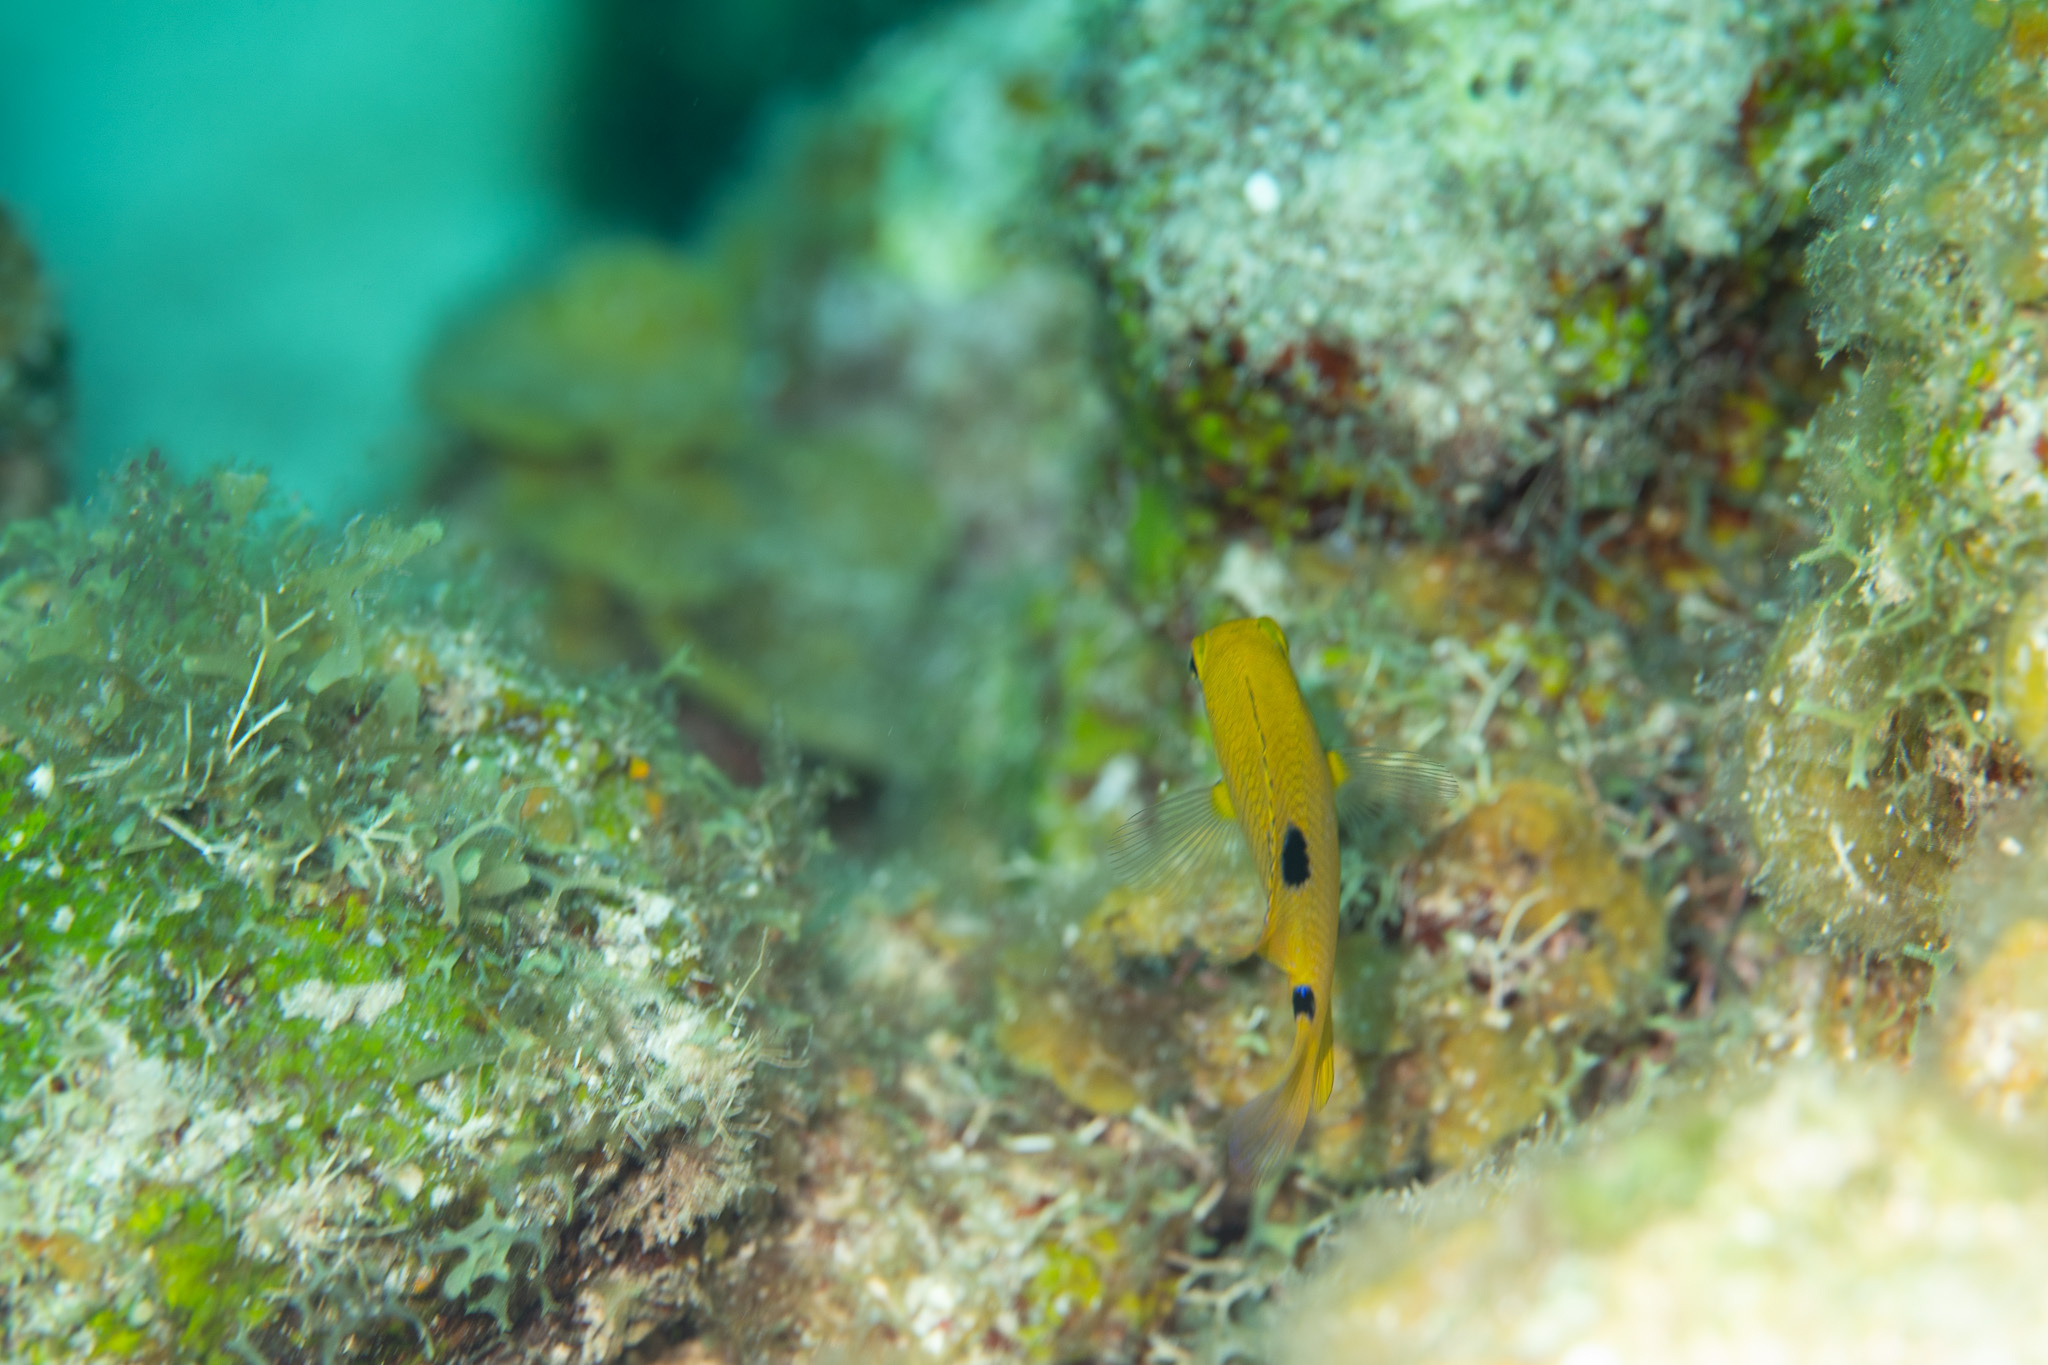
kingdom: Animalia
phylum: Chordata
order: Perciformes
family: Pomacentridae
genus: Stegastes
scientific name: Stegastes planifrons
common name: Threespot damselfish
